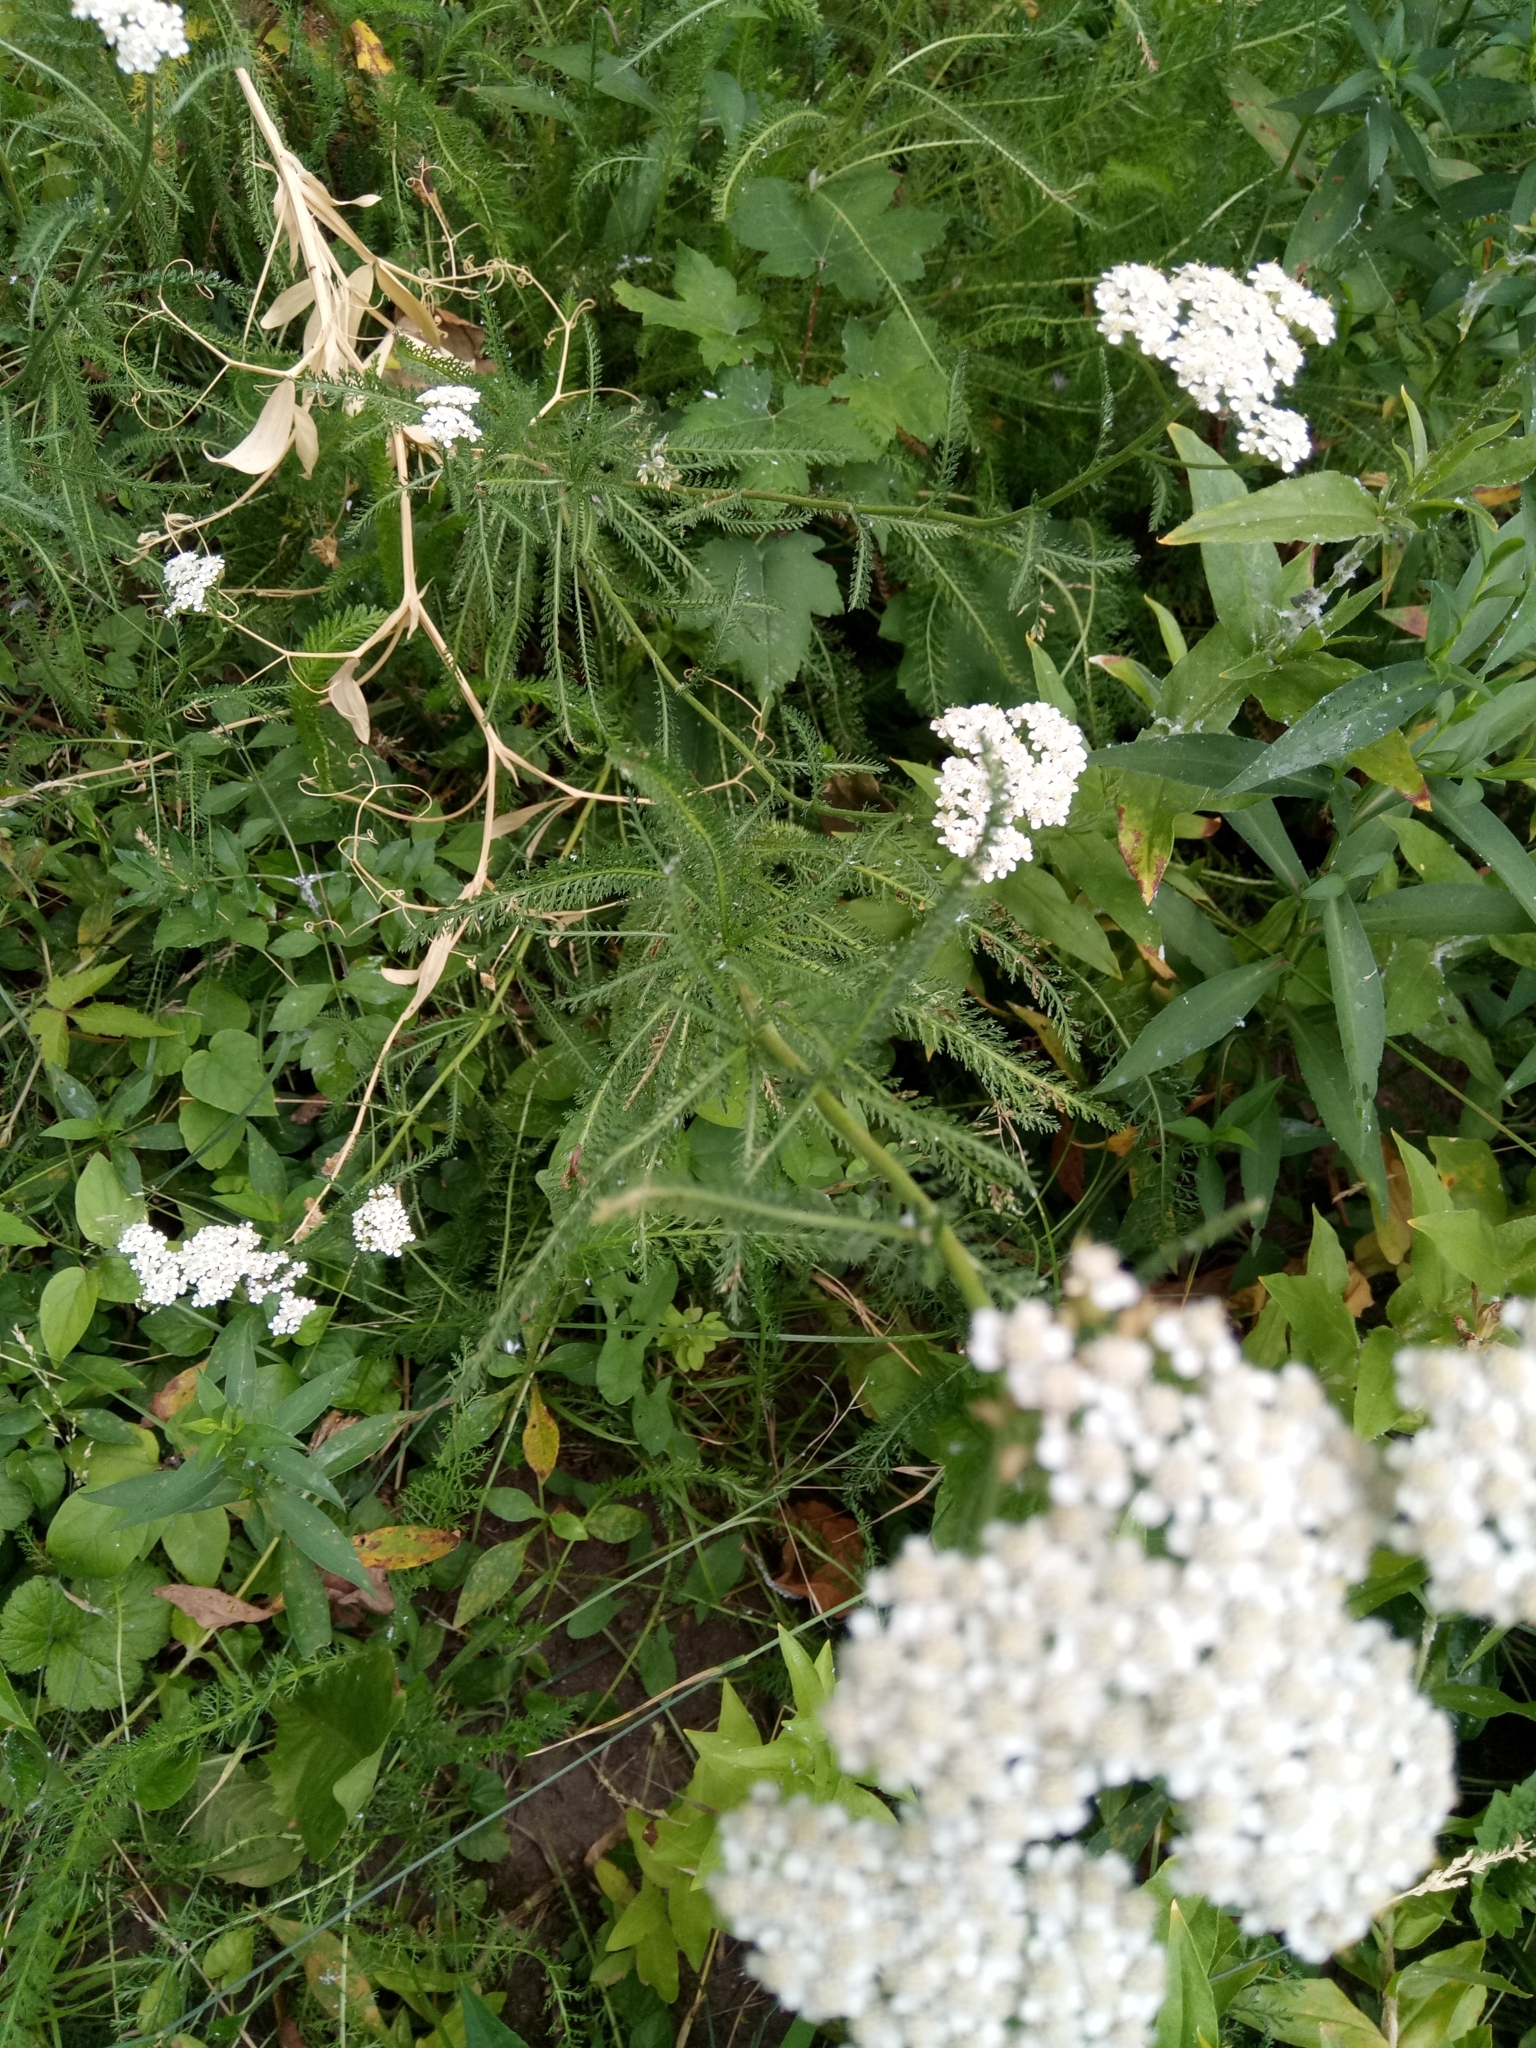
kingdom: Plantae
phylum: Tracheophyta
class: Magnoliopsida
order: Asterales
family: Asteraceae
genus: Achillea
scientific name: Achillea millefolium
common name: Yarrow
